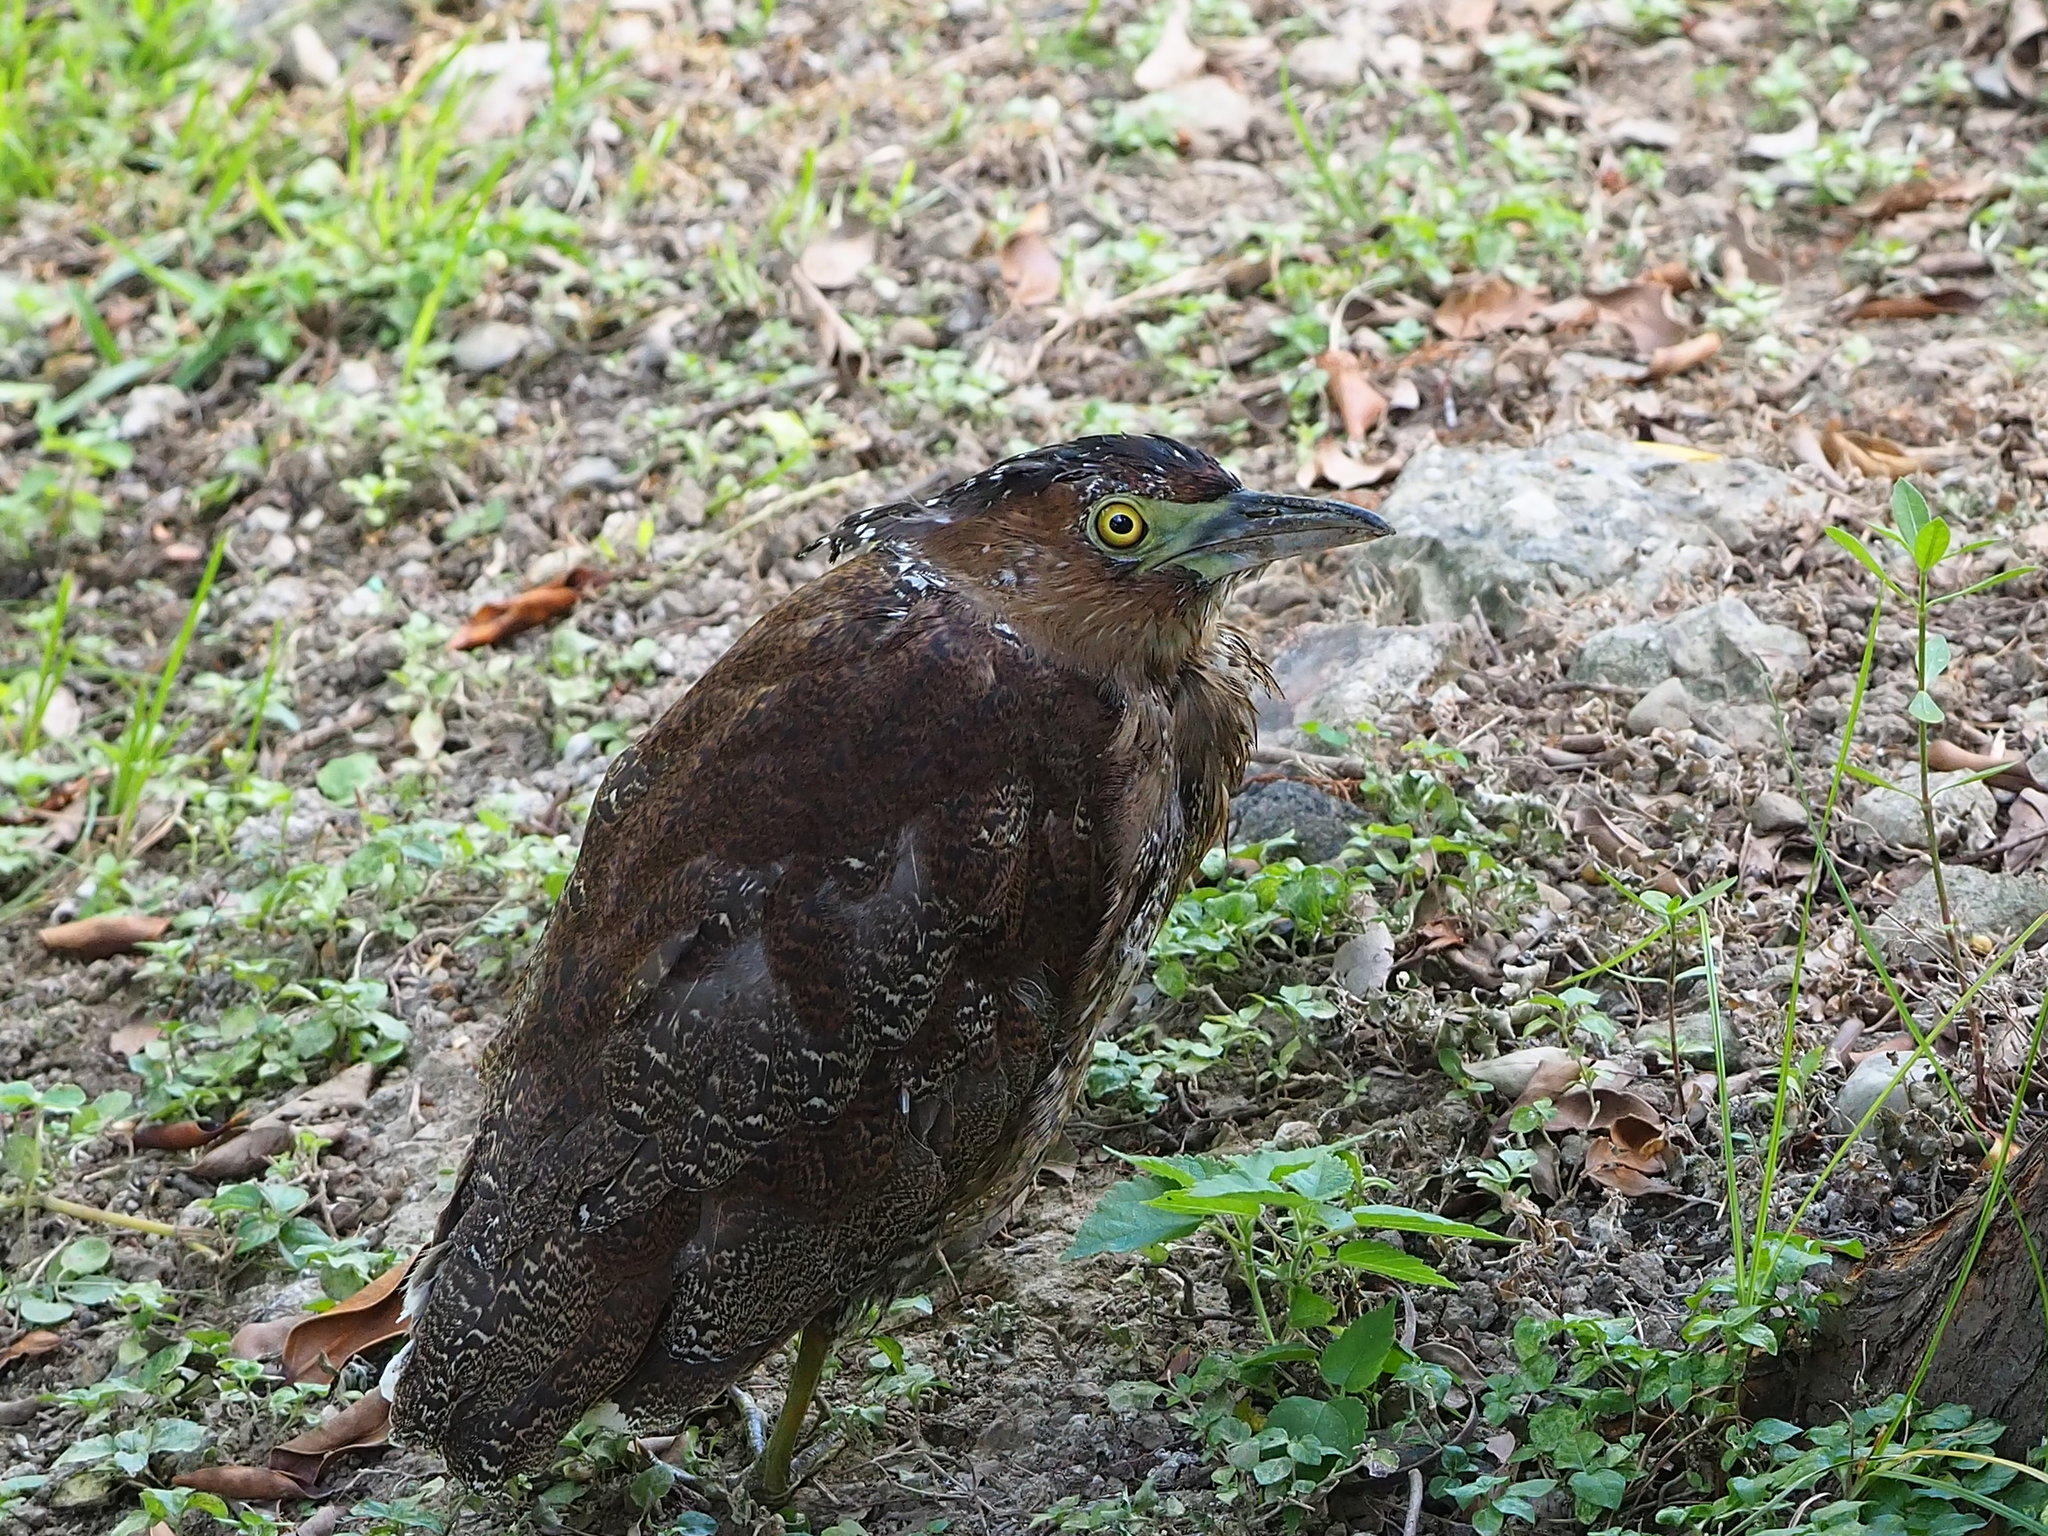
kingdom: Animalia
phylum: Chordata
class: Aves
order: Pelecaniformes
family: Ardeidae
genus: Gorsachius
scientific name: Gorsachius melanolophus
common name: Malayan night heron
